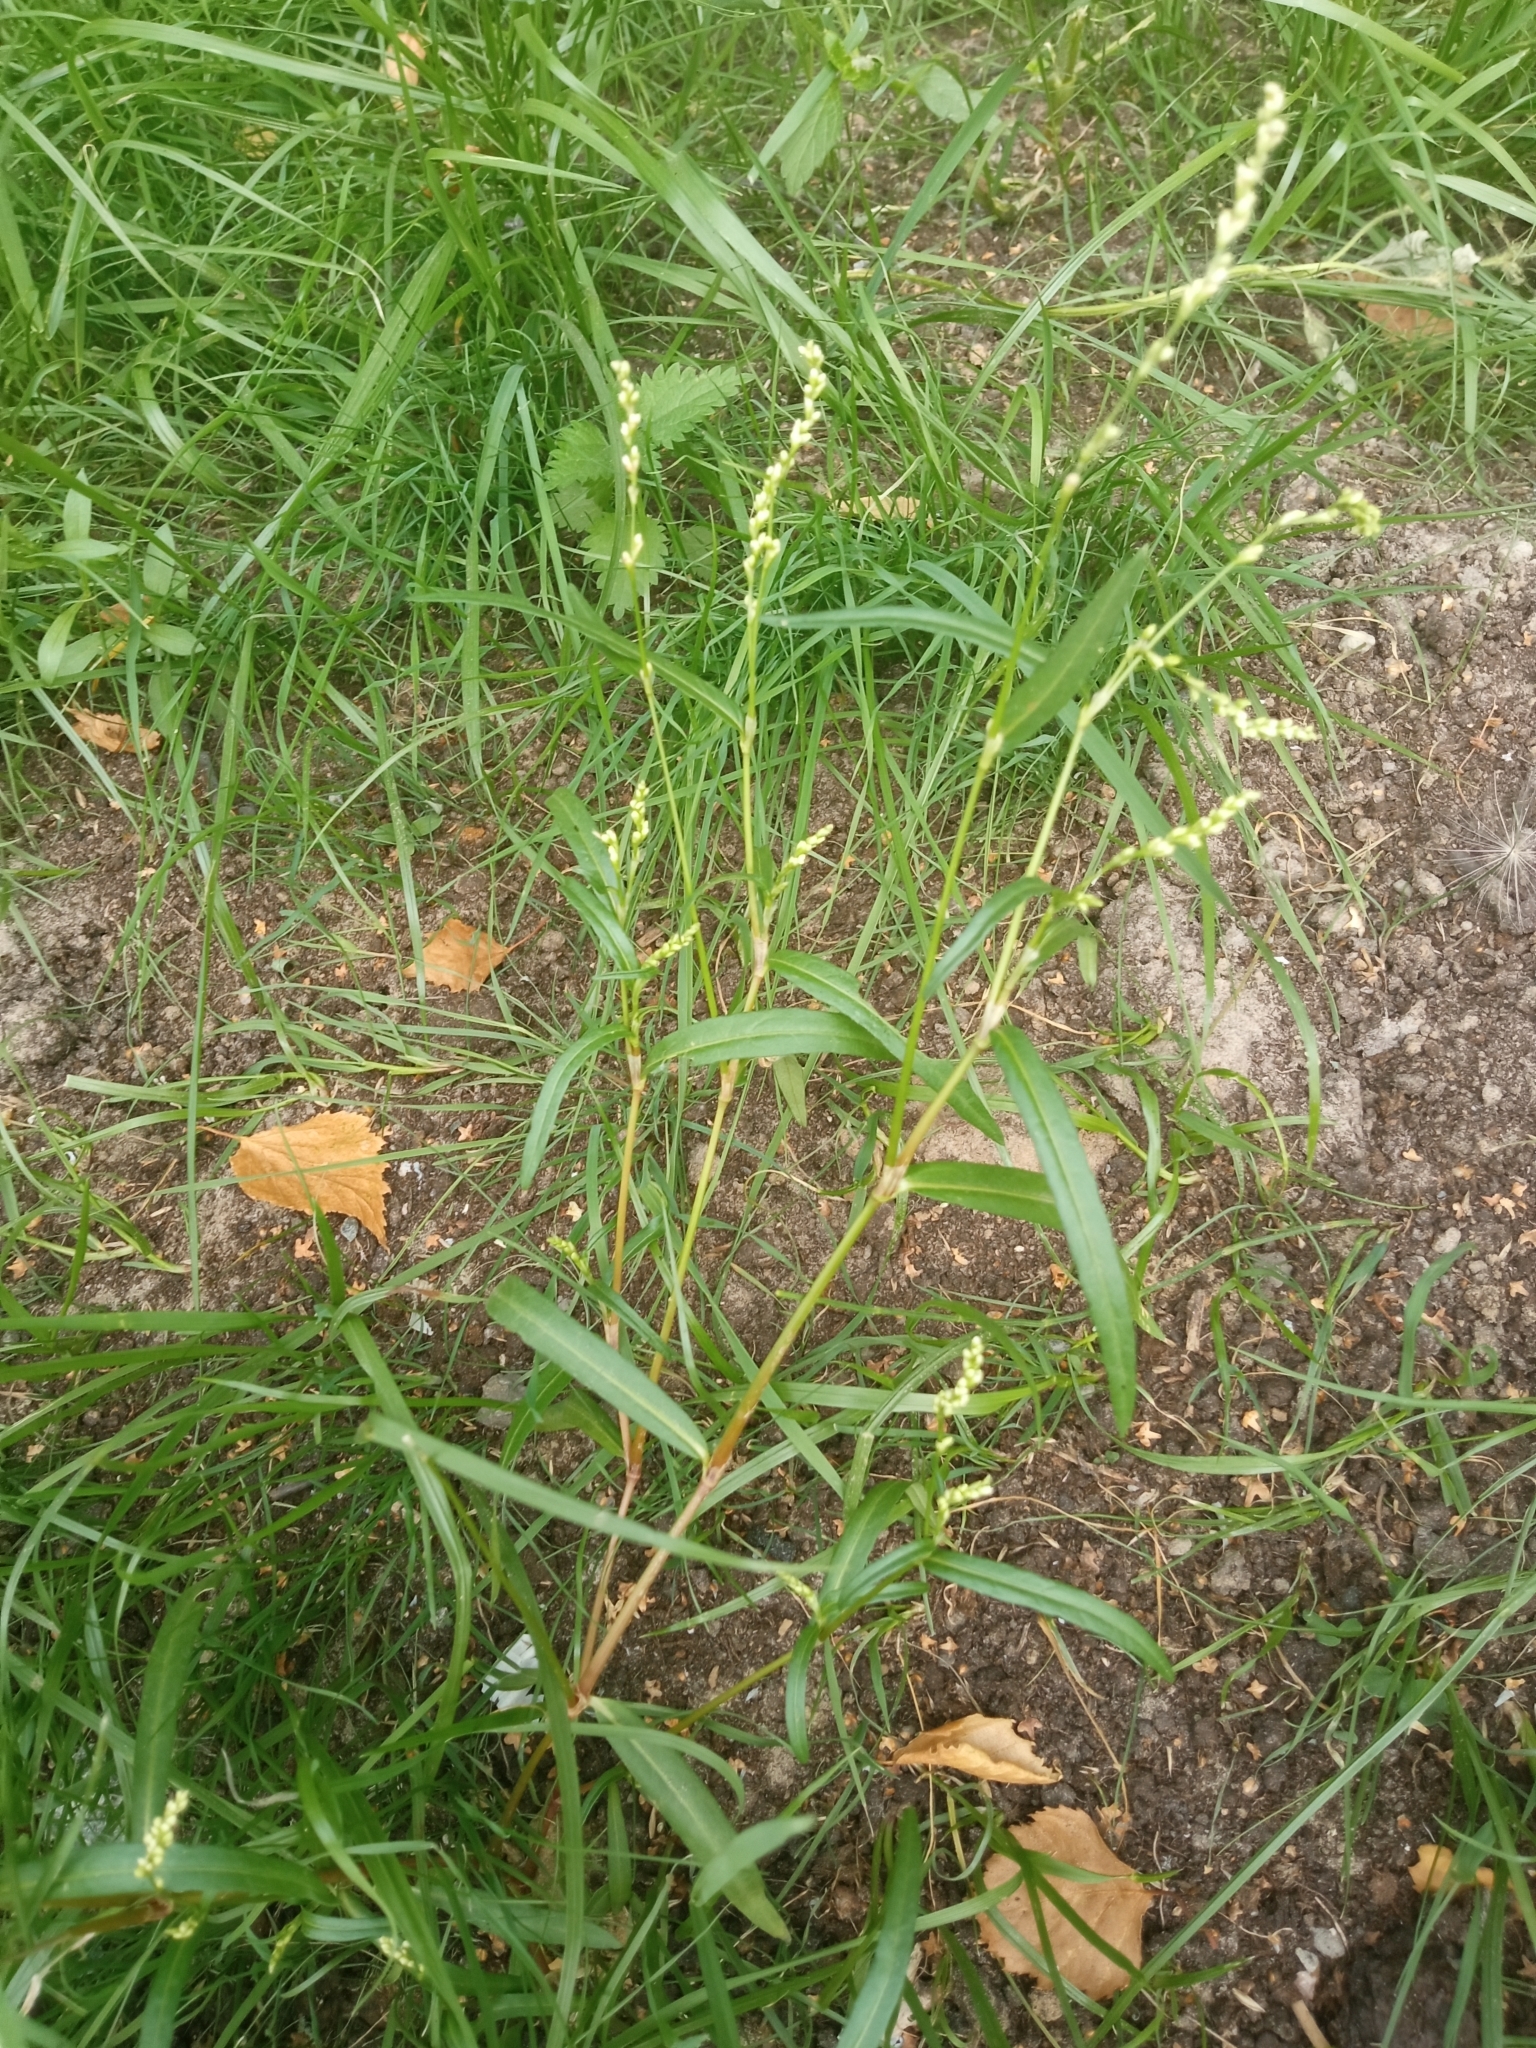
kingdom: Plantae
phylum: Tracheophyta
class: Magnoliopsida
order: Caryophyllales
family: Polygonaceae
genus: Persicaria
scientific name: Persicaria minor
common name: Small water-pepper
